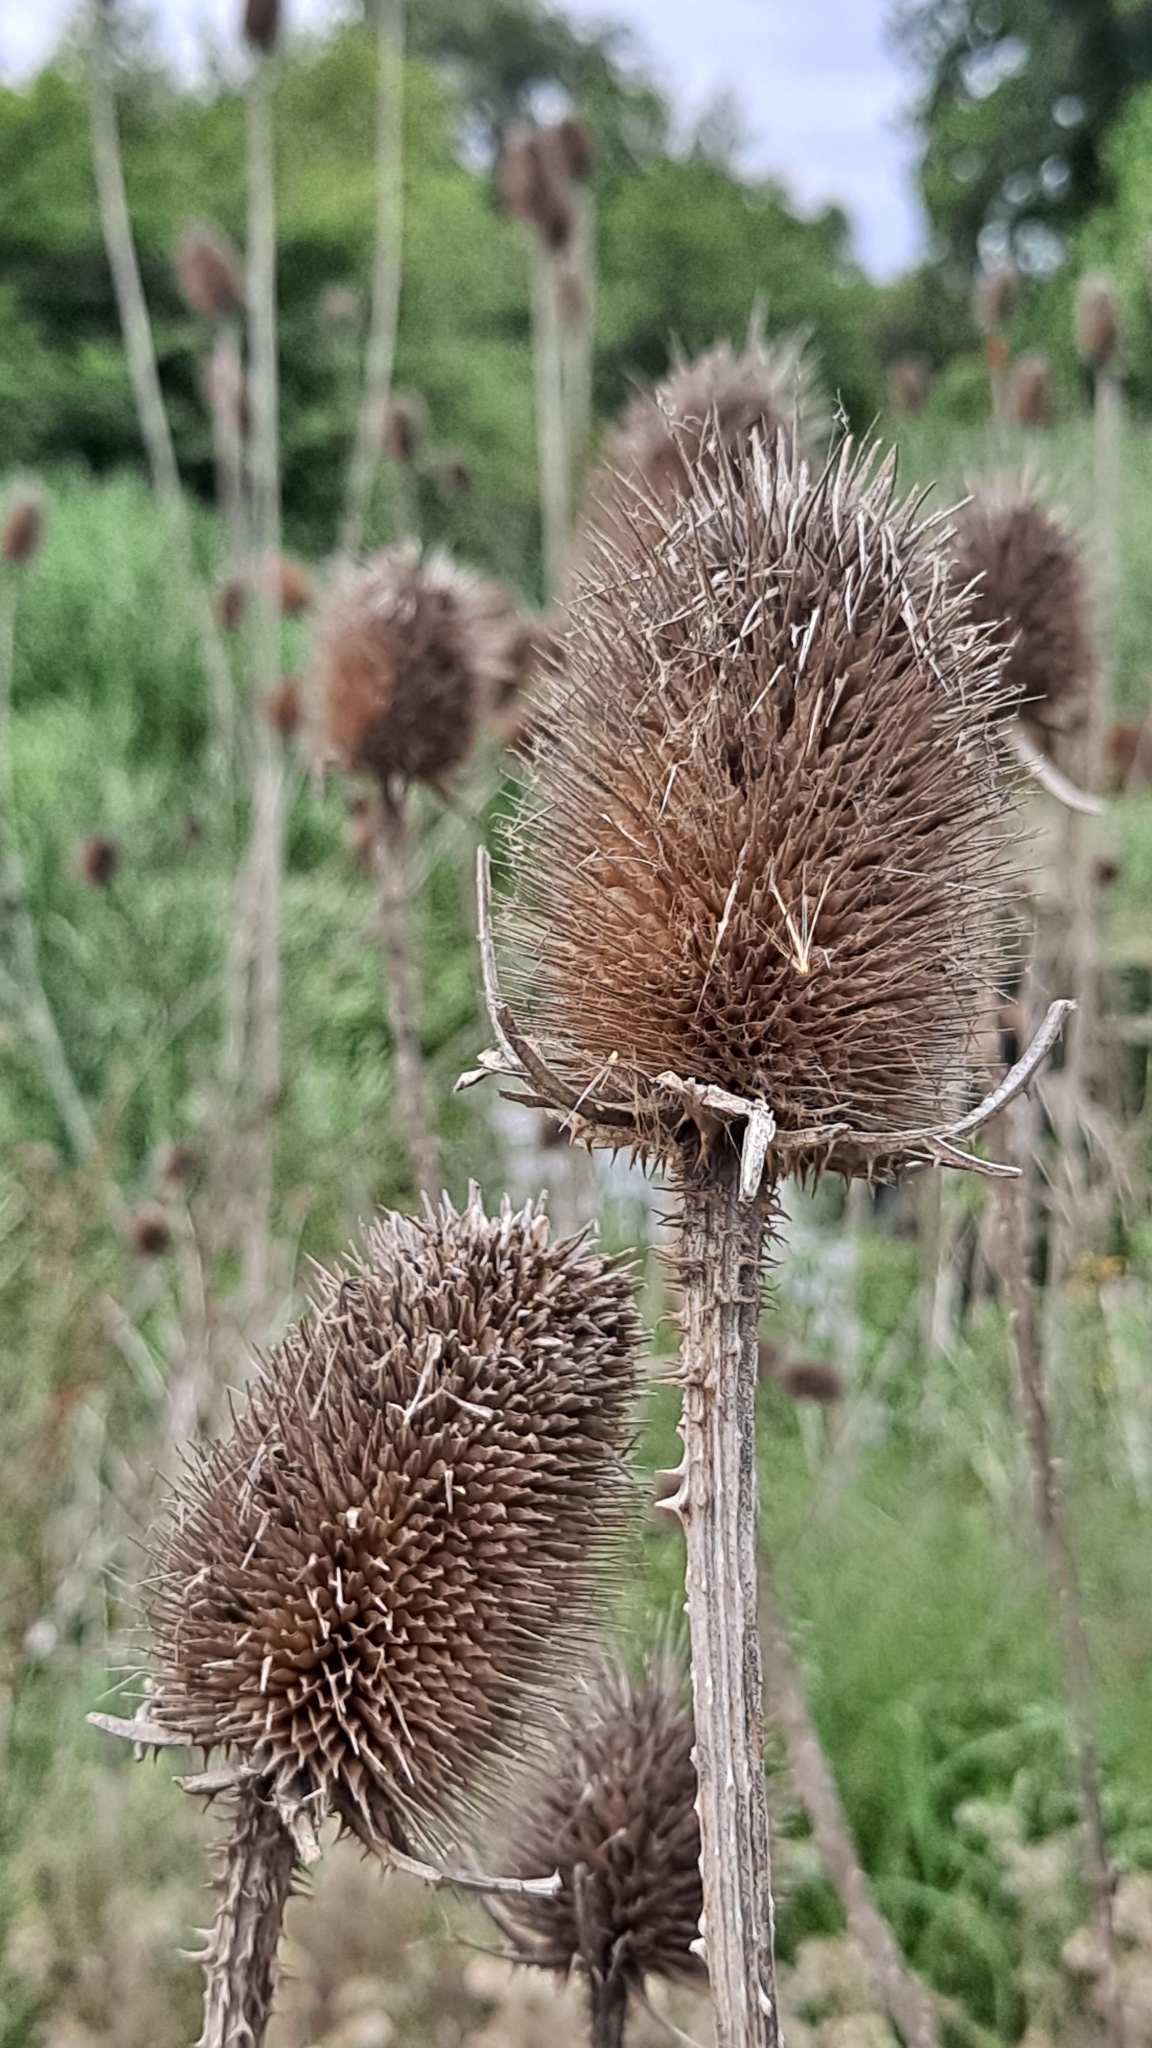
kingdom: Plantae
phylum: Tracheophyta
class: Magnoliopsida
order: Dipsacales
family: Caprifoliaceae
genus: Dipsacus
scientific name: Dipsacus fullonum
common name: Teasel
